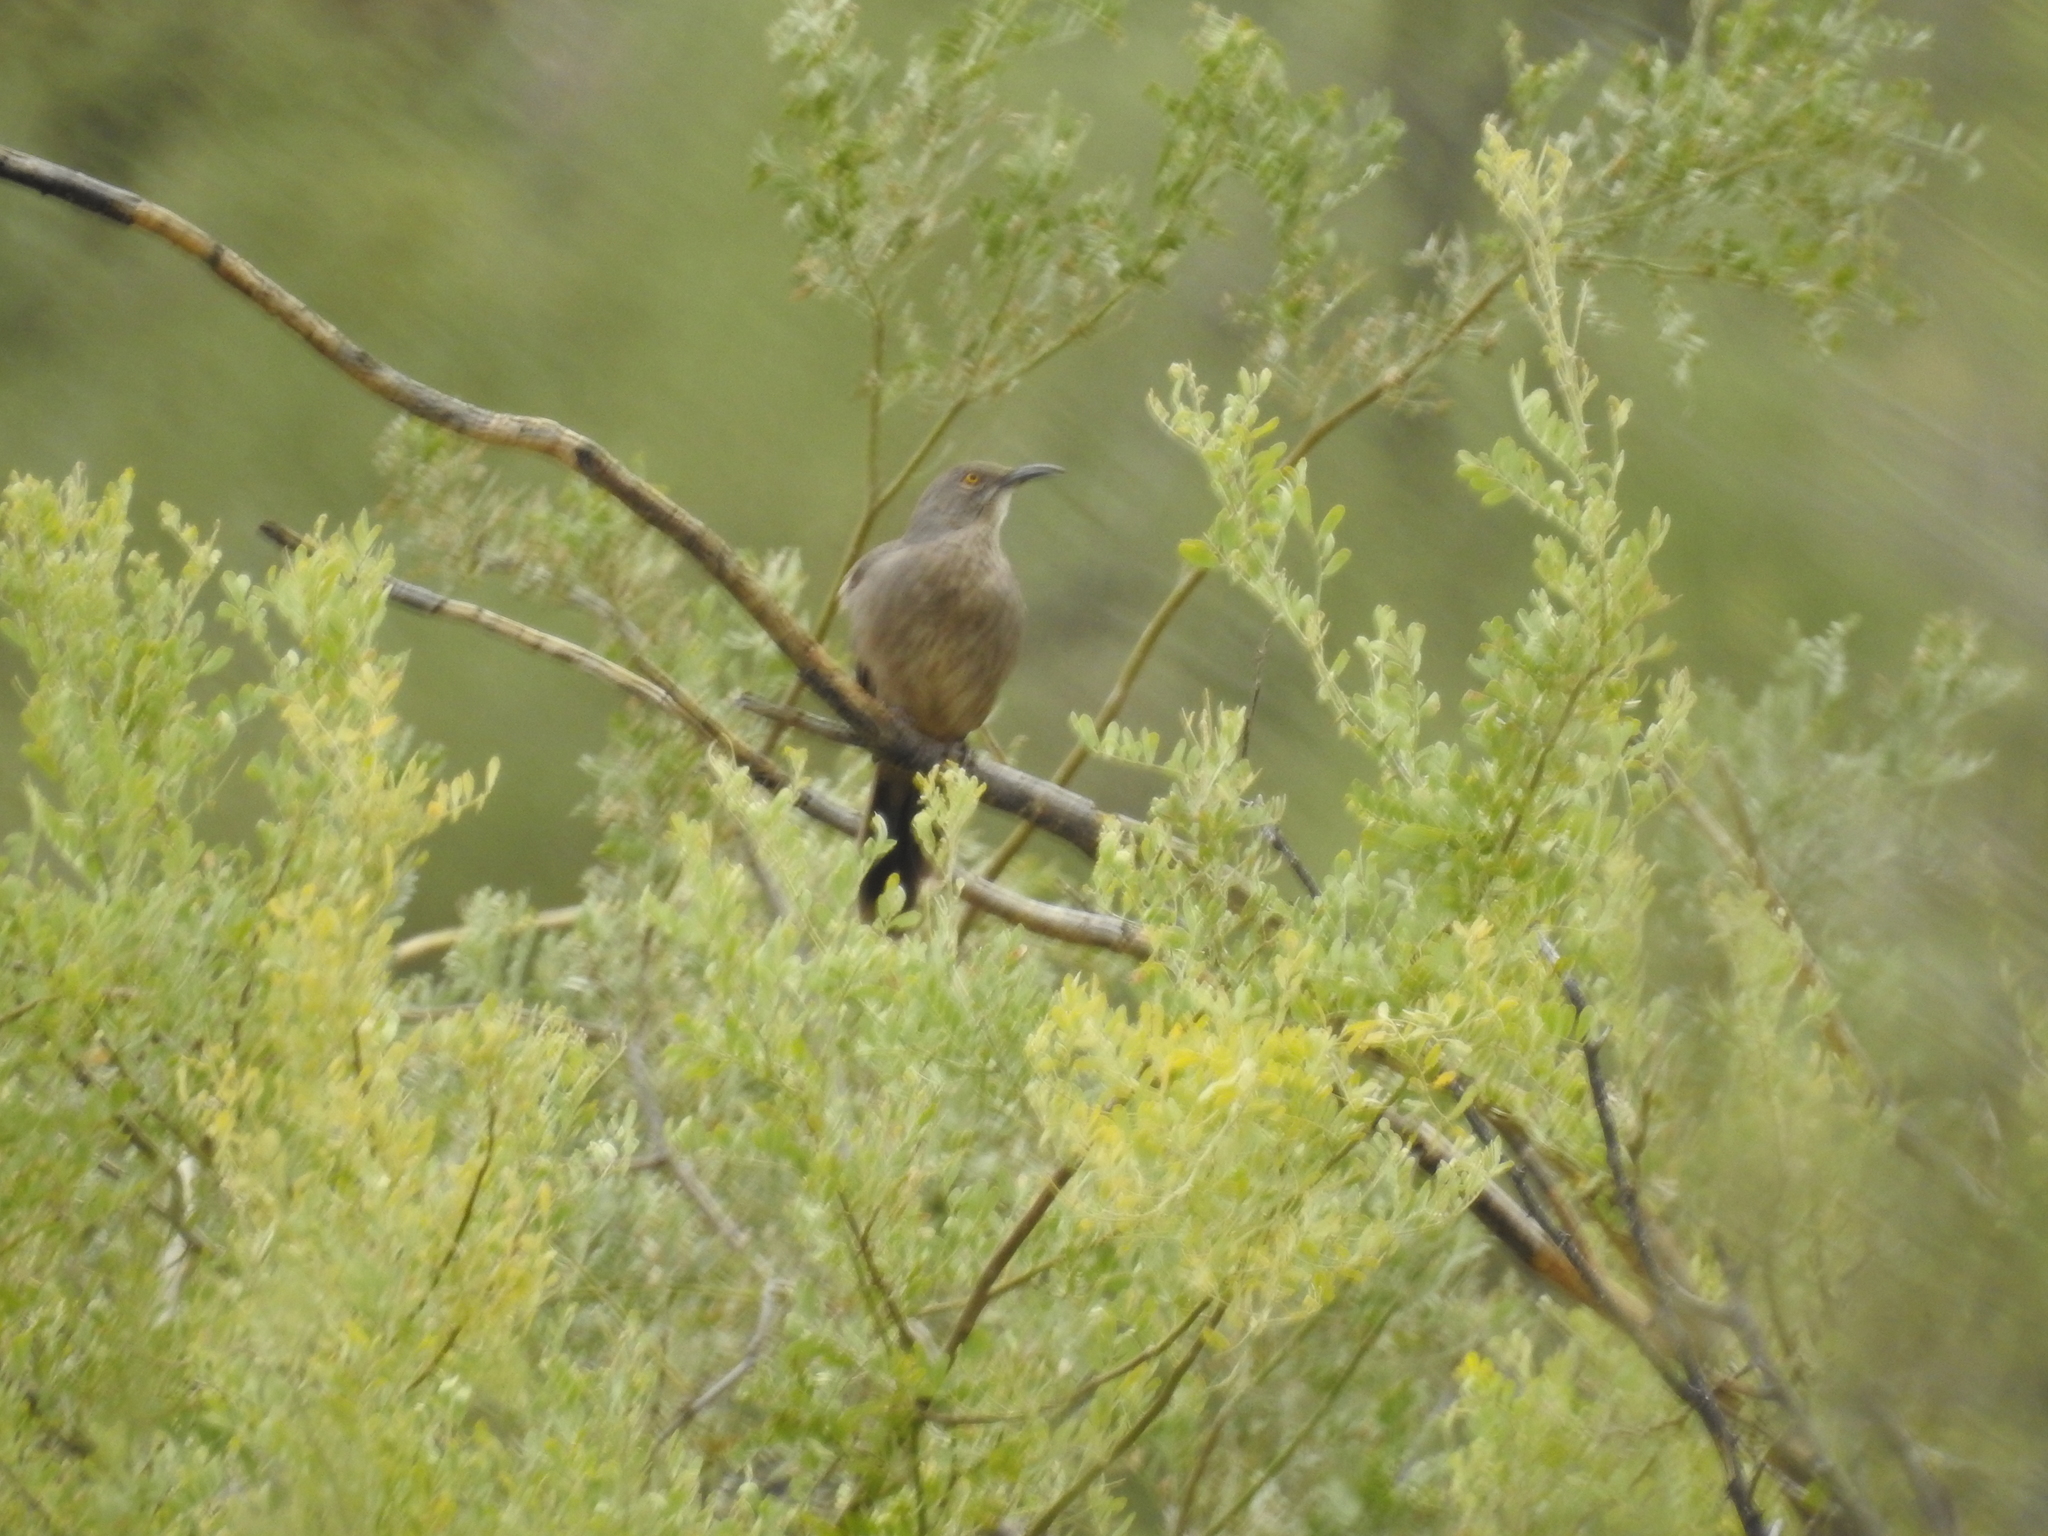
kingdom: Animalia
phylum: Chordata
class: Aves
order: Passeriformes
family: Mimidae
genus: Toxostoma
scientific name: Toxostoma curvirostre
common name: Curve-billed thrasher
